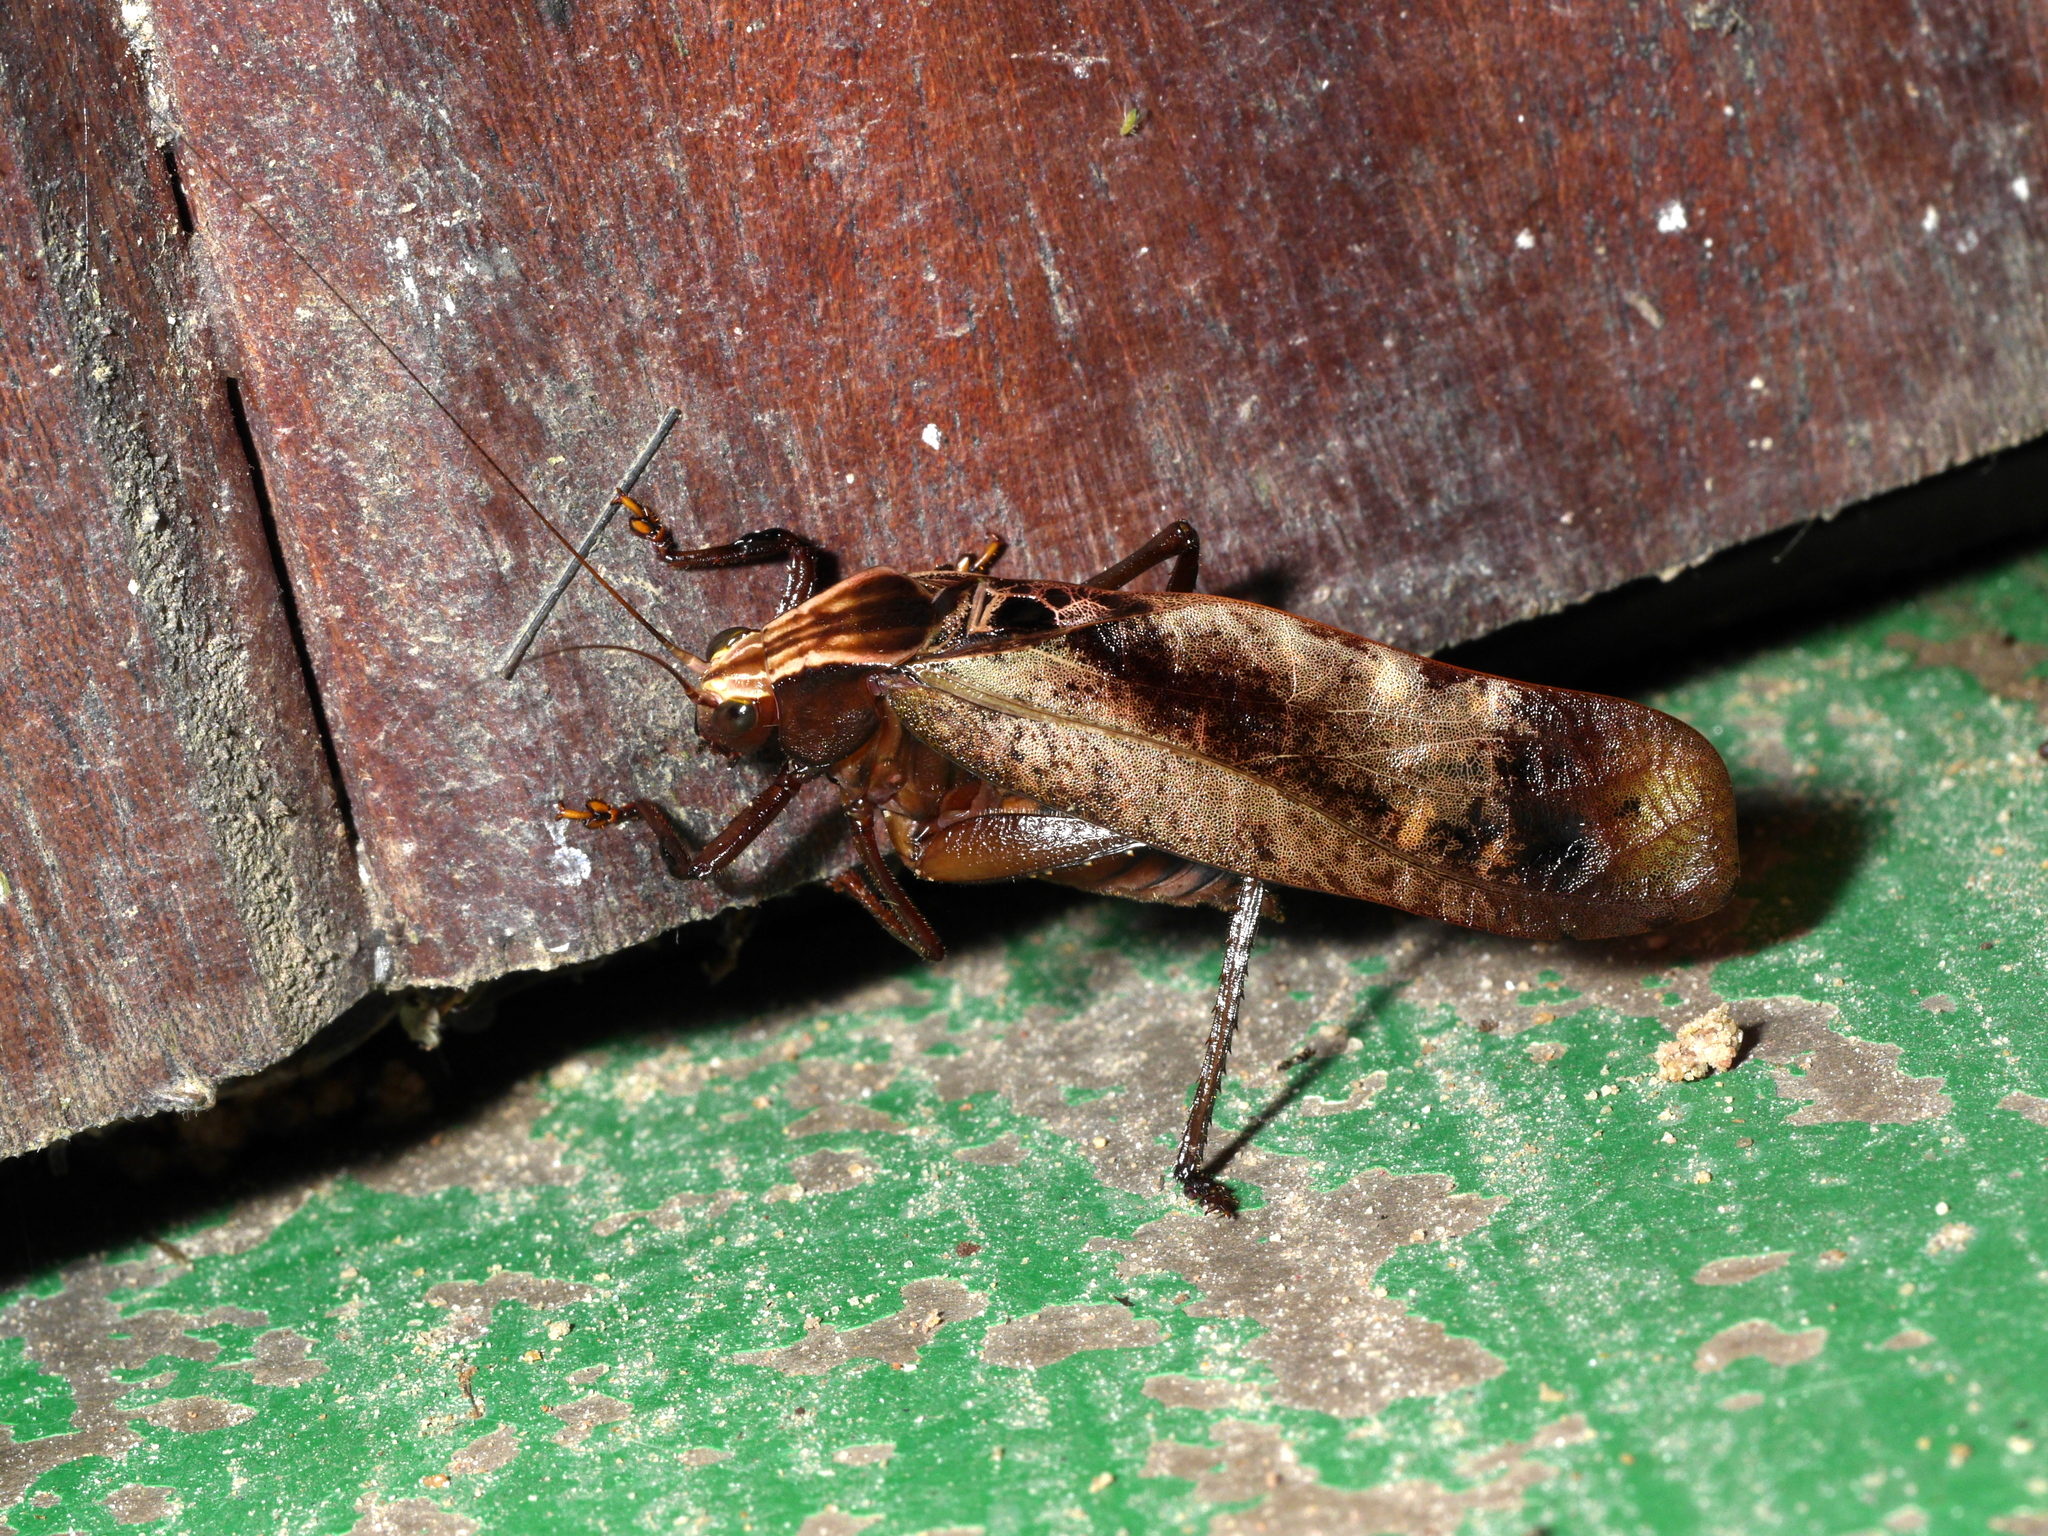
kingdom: Animalia
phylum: Arthropoda
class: Insecta
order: Orthoptera
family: Tettigoniidae
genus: Enochletica
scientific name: Enochletica ostentatrix
